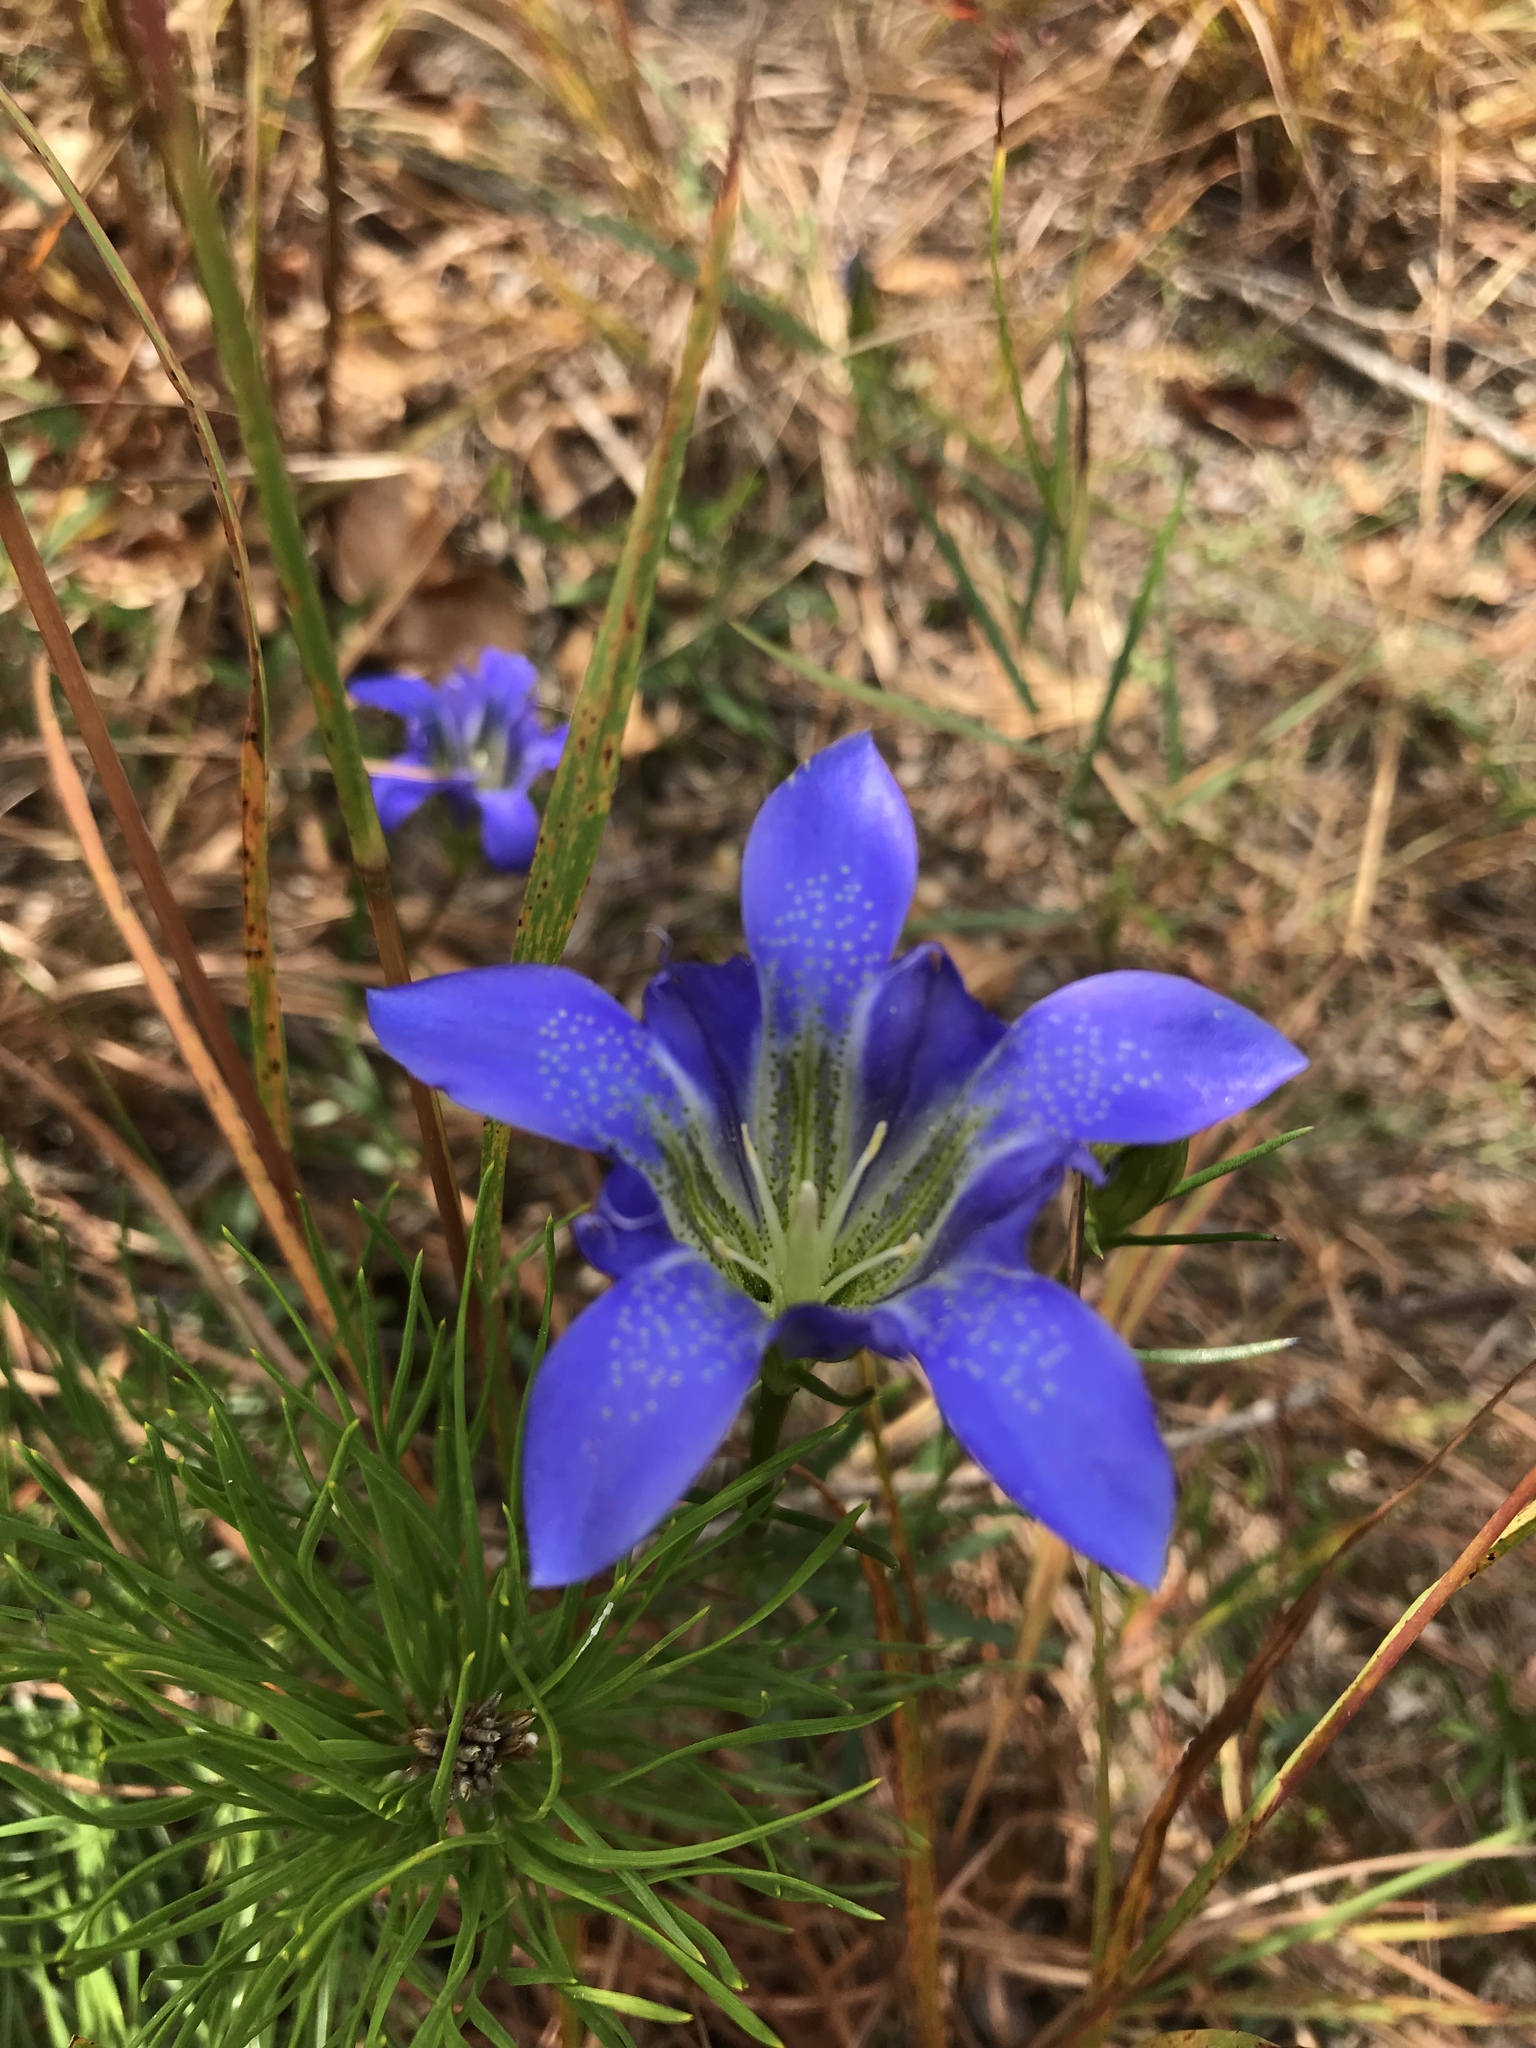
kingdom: Plantae
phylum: Tracheophyta
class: Magnoliopsida
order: Gentianales
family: Gentianaceae
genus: Gentiana
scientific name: Gentiana autumnalis
